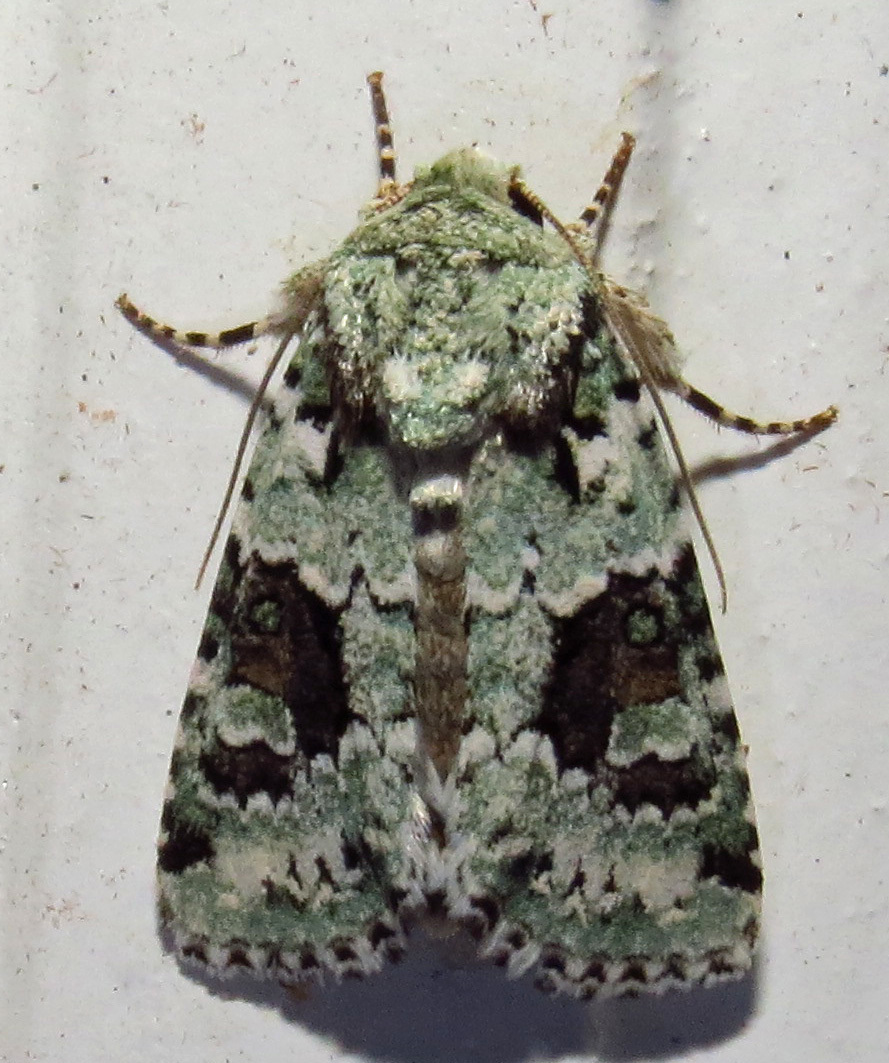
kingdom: Animalia
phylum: Arthropoda
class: Insecta
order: Lepidoptera
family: Noctuidae
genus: Lacinipolia
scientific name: Lacinipolia laudabilis
